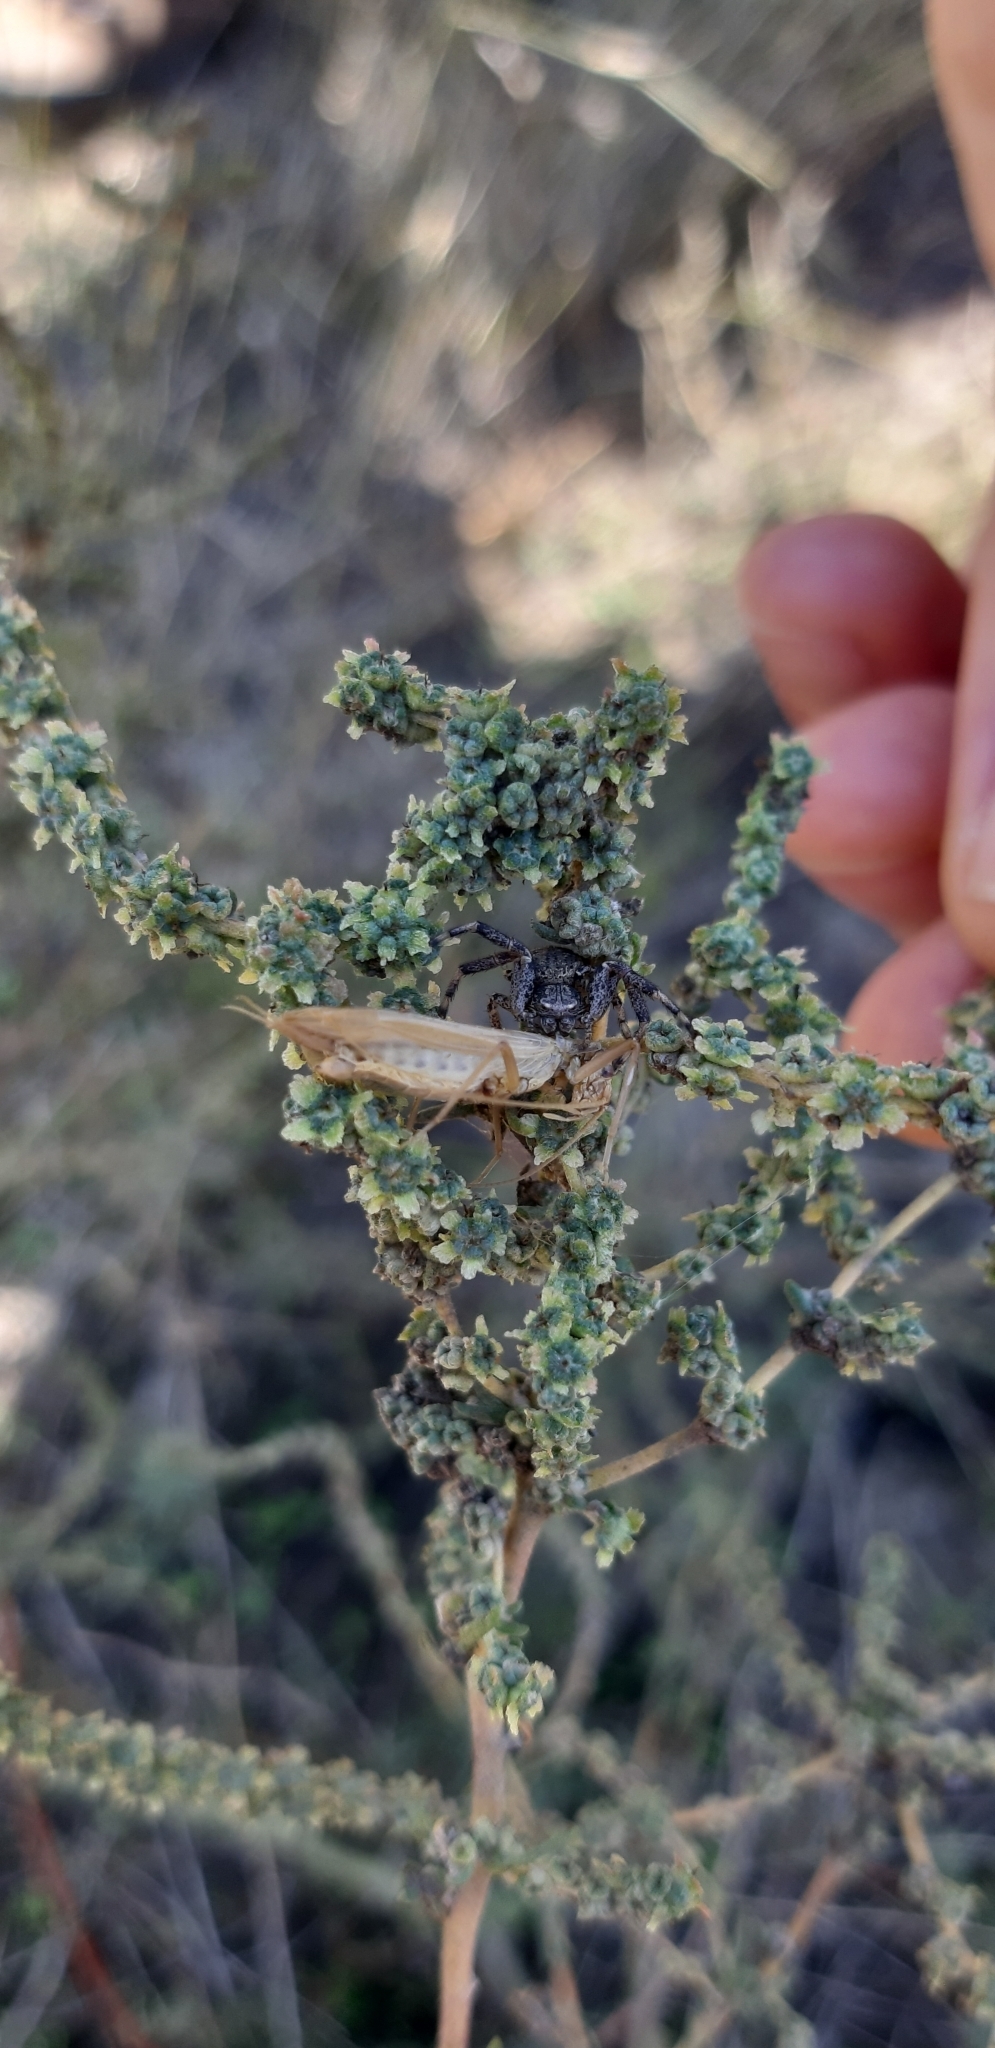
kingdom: Animalia
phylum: Arthropoda
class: Insecta
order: Orthoptera
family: Gryllidae
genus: Oecanthus
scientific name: Oecanthus pellucens
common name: Tree-cricket
